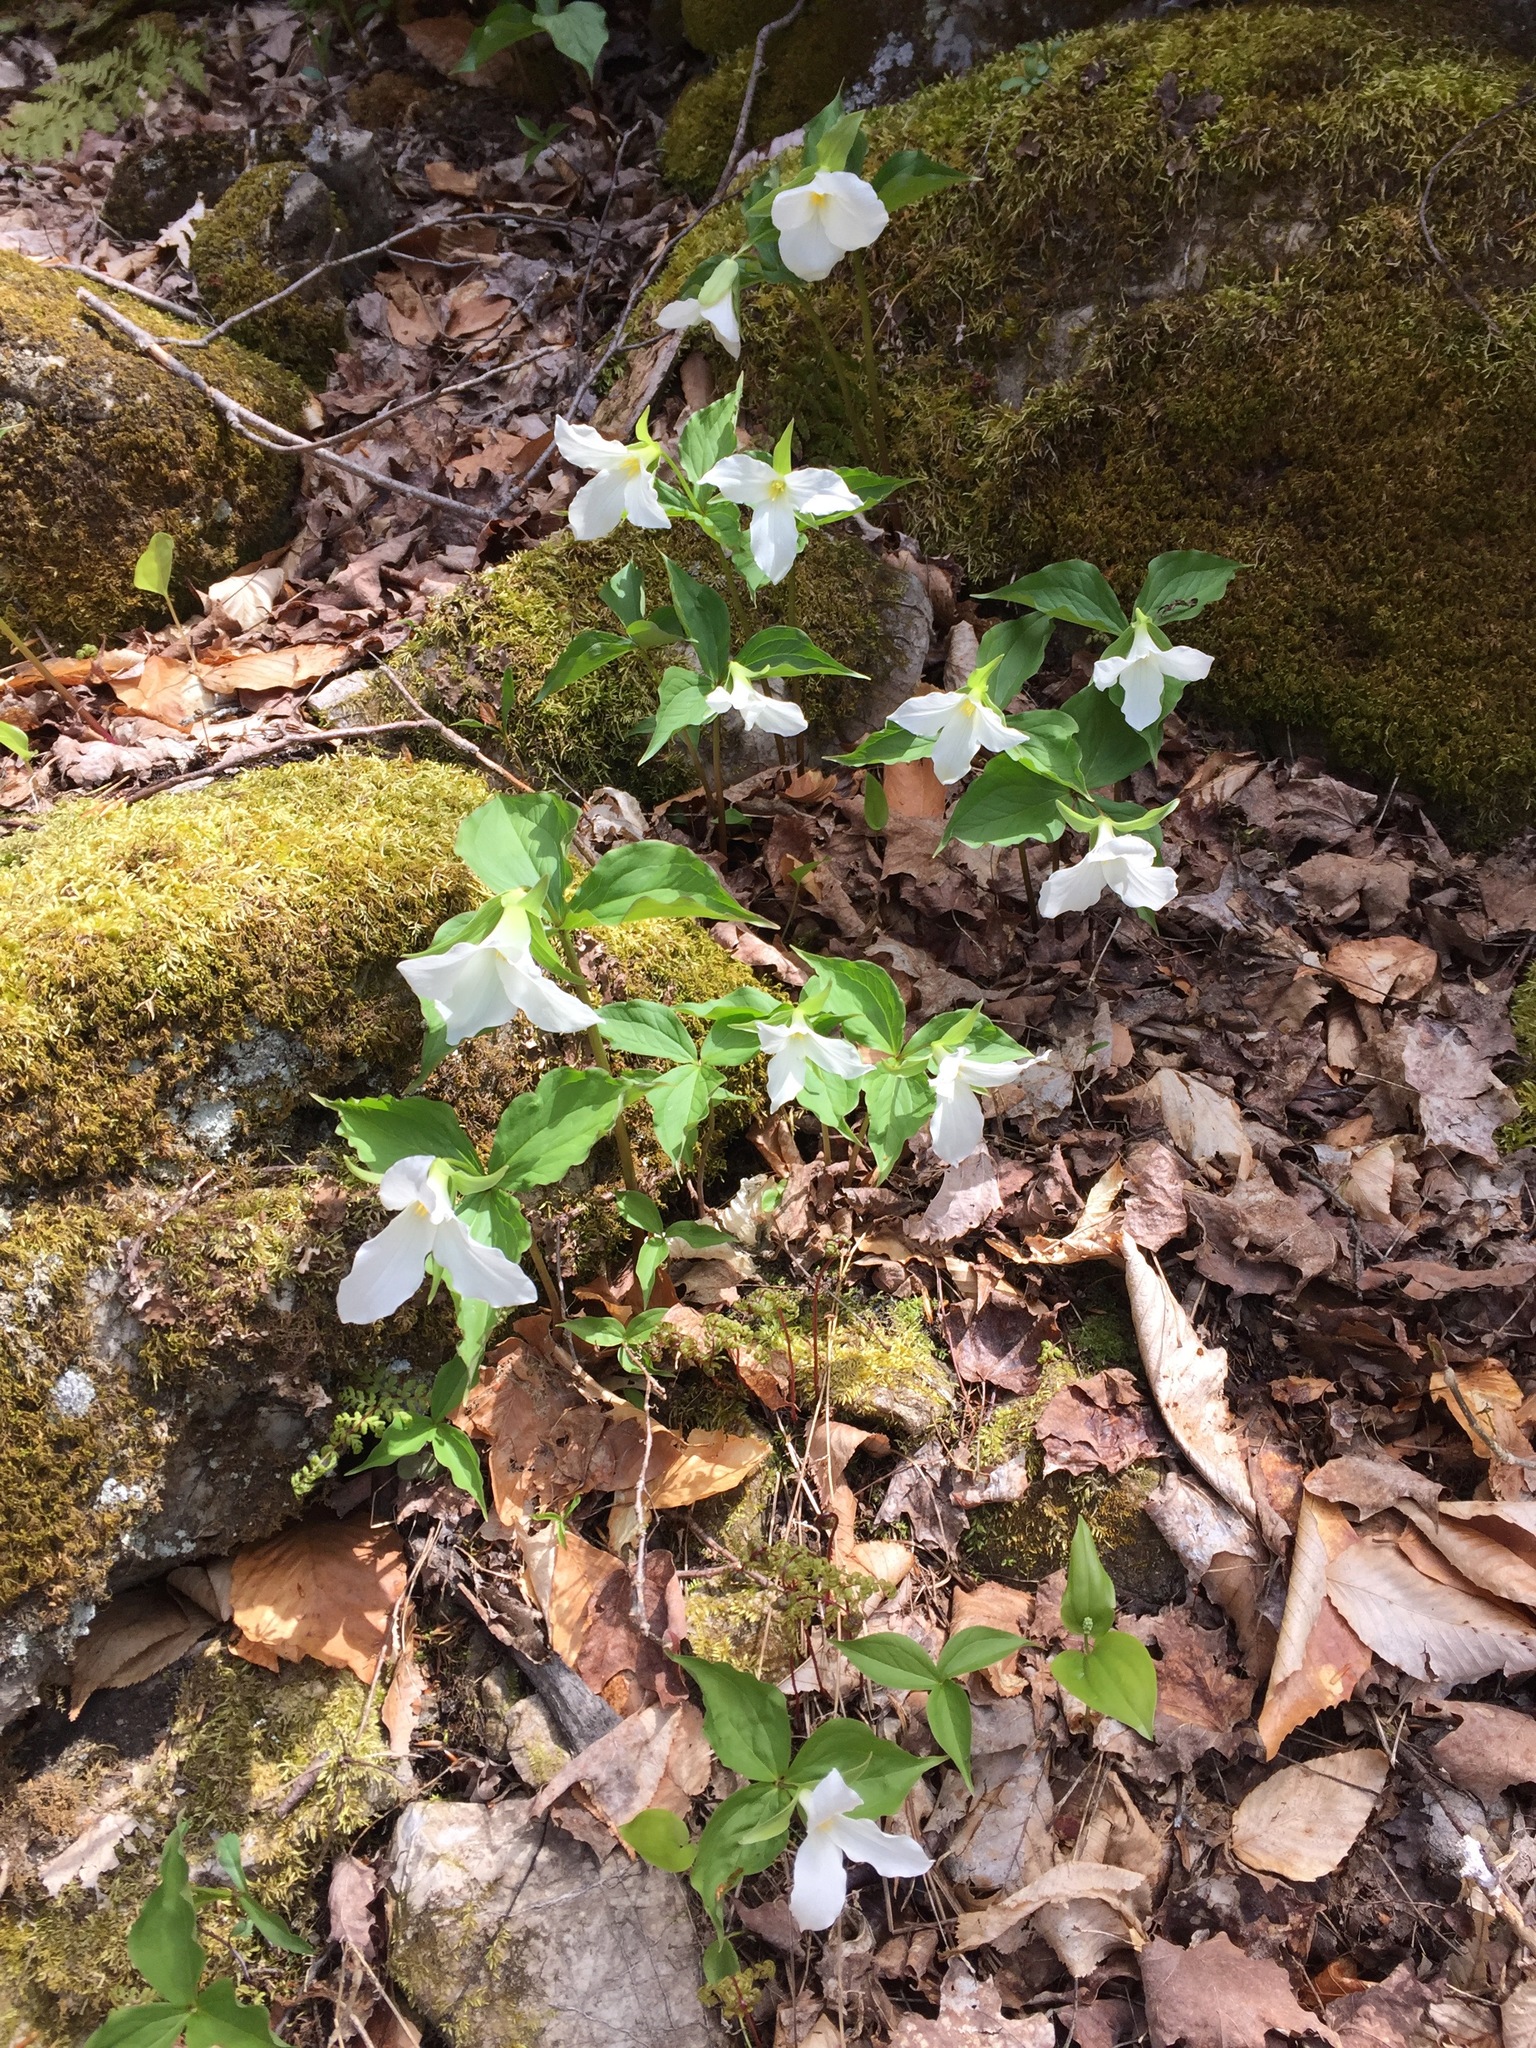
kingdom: Plantae
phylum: Tracheophyta
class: Liliopsida
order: Liliales
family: Melanthiaceae
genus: Trillium
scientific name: Trillium grandiflorum
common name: Great white trillium
